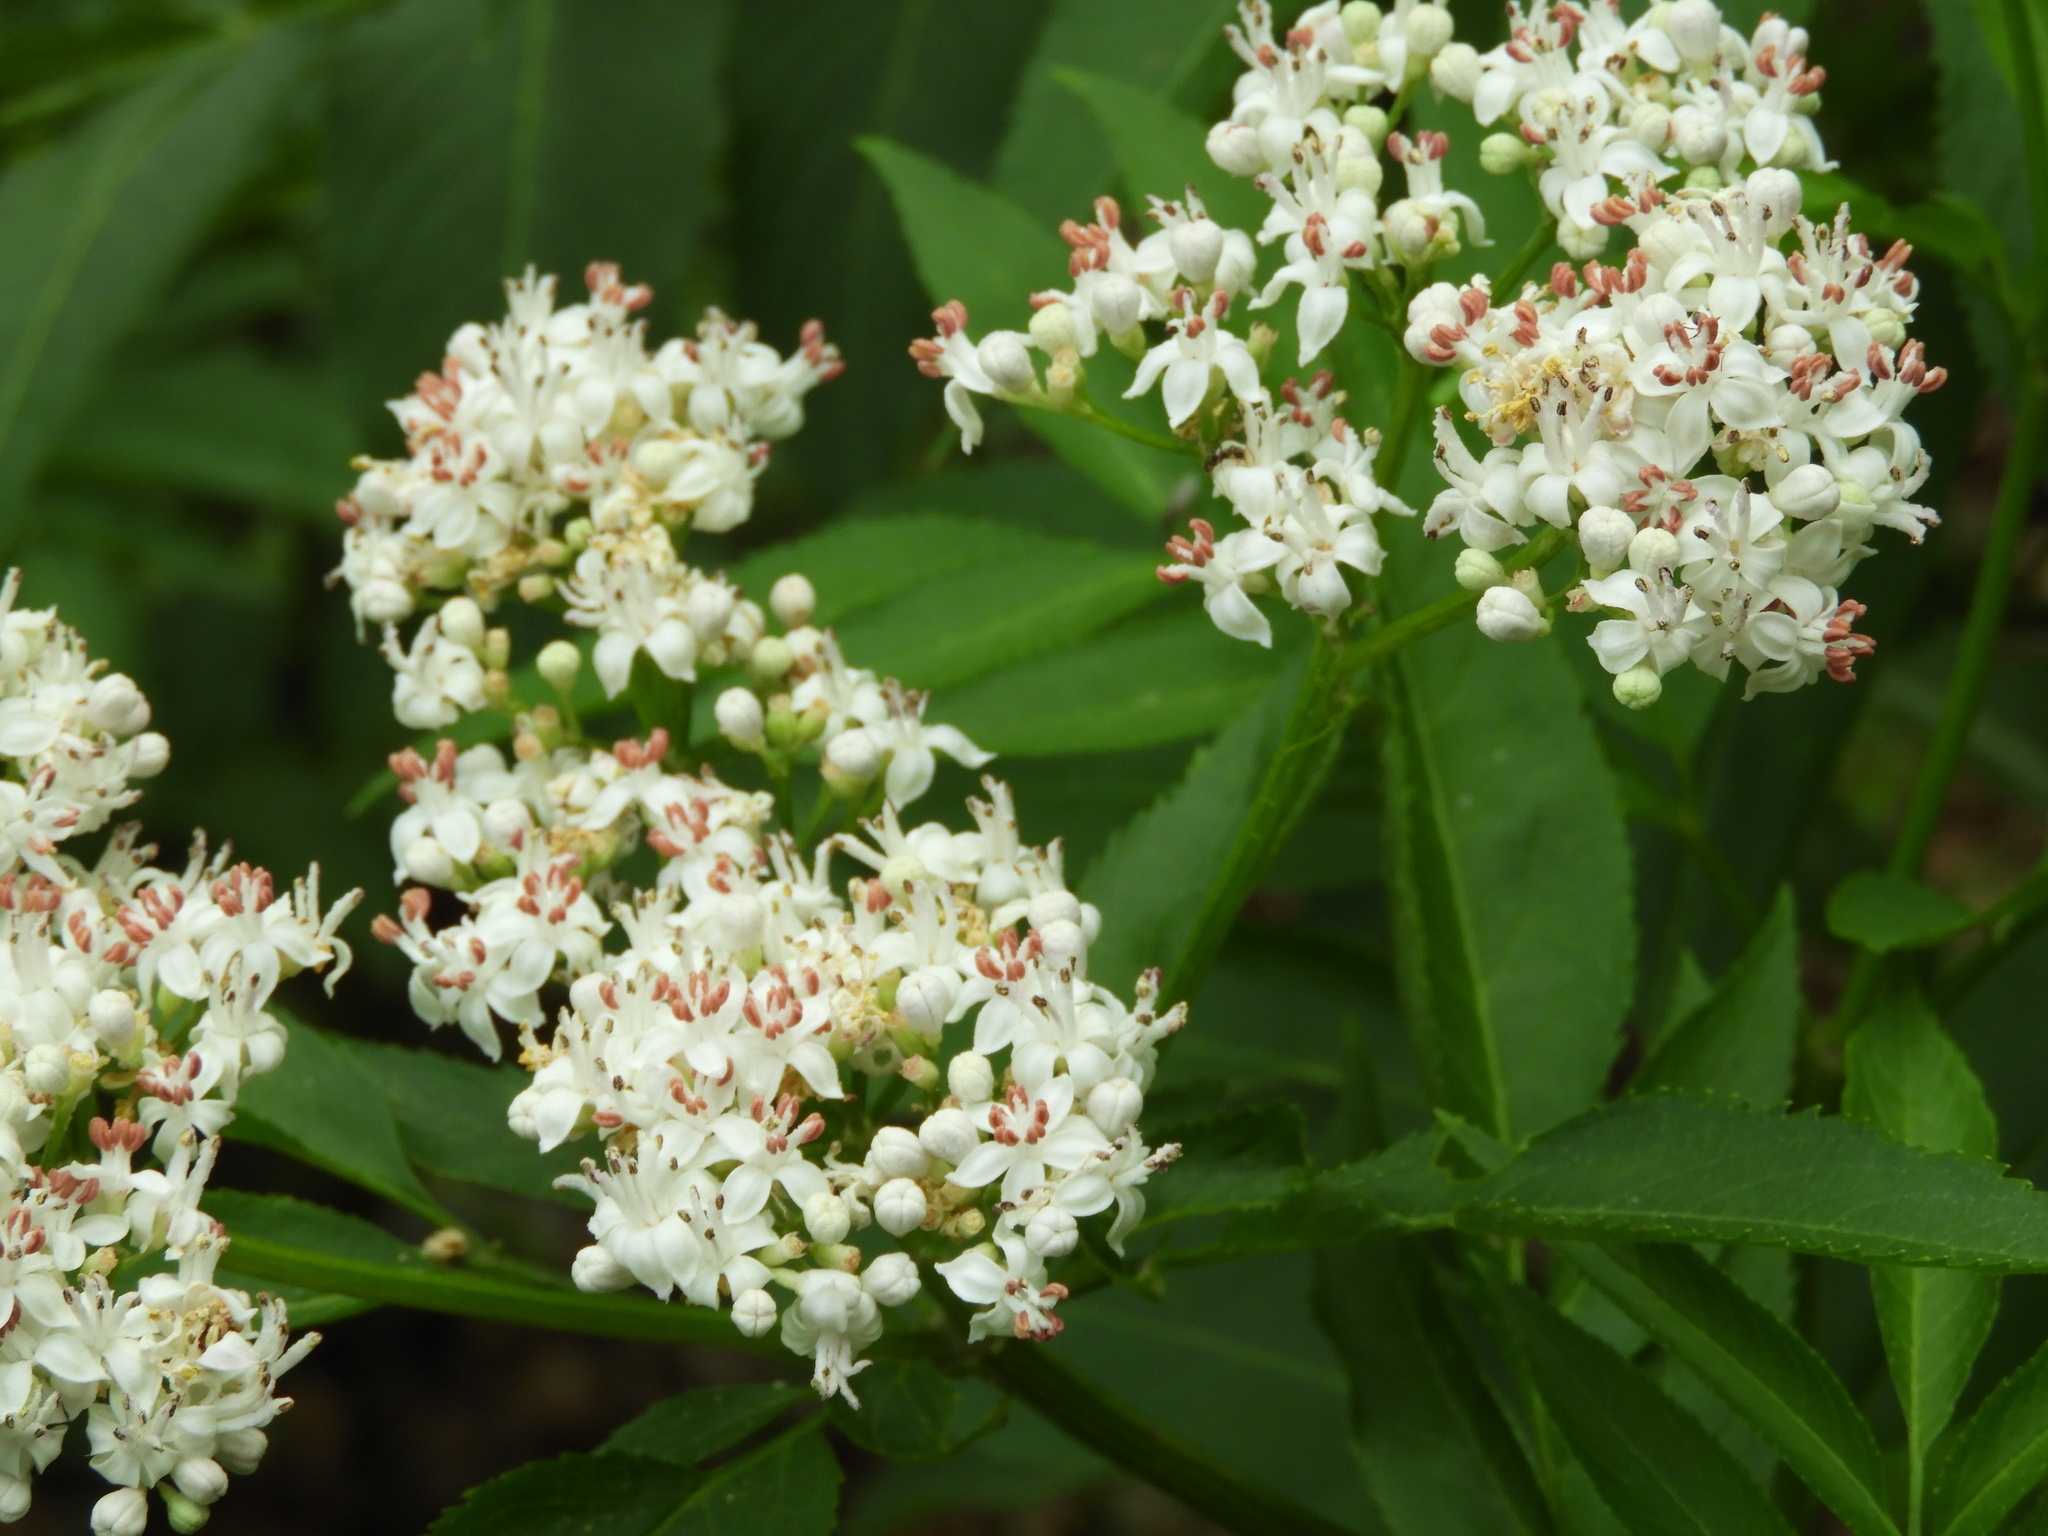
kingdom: Plantae
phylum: Tracheophyta
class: Magnoliopsida
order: Dipsacales
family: Viburnaceae
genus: Sambucus
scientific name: Sambucus ebulus
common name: Dwarf elder
